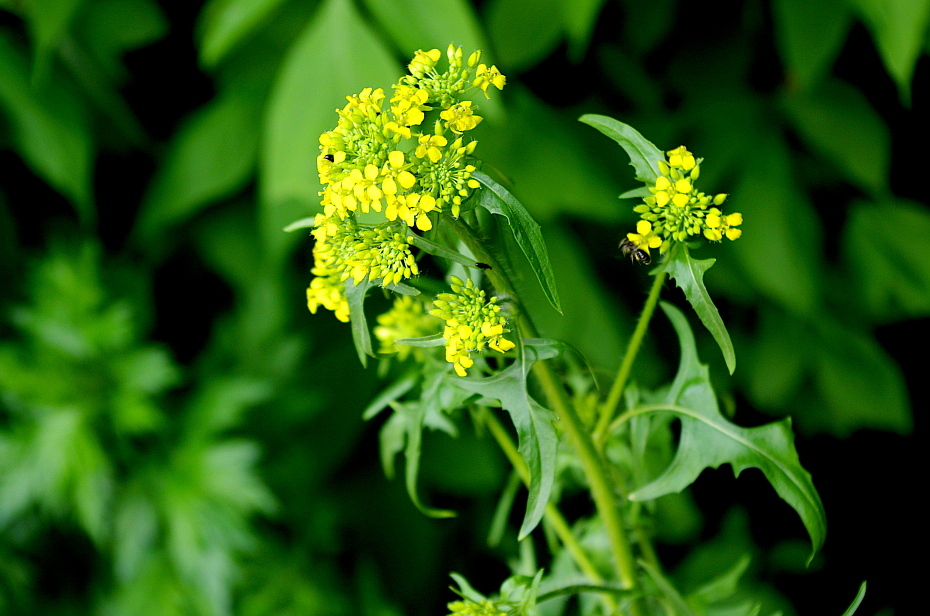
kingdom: Plantae
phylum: Tracheophyta
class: Magnoliopsida
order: Brassicales
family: Brassicaceae
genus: Sisymbrium
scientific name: Sisymbrium loeselii
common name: False london-rocket
